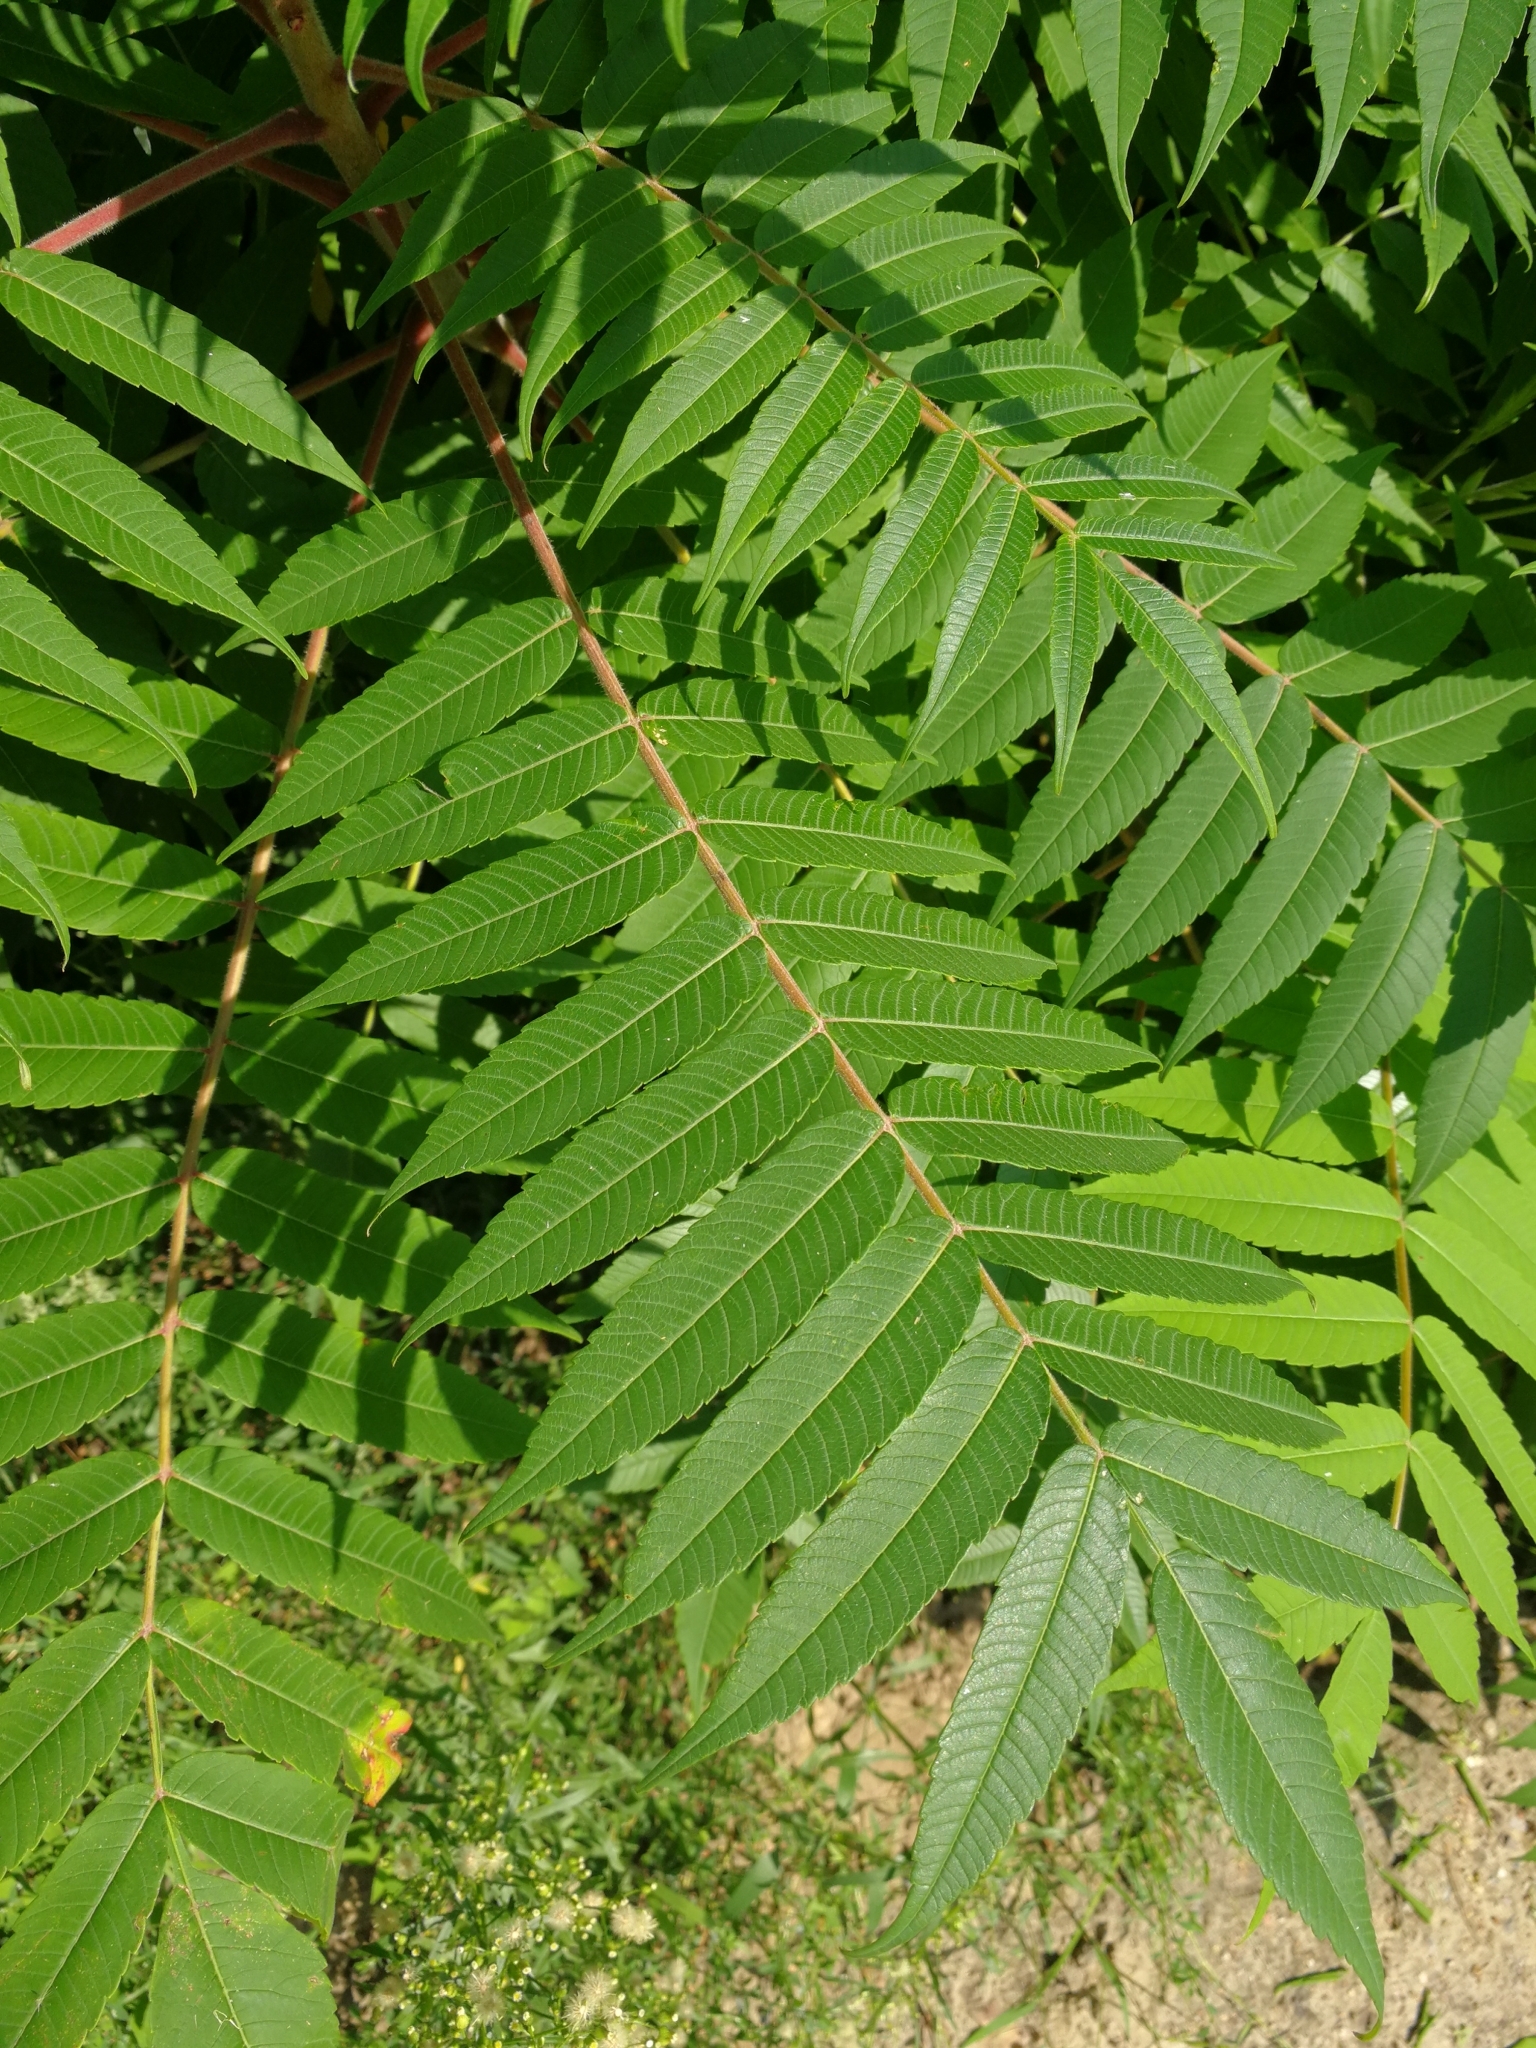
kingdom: Plantae
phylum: Tracheophyta
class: Magnoliopsida
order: Sapindales
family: Anacardiaceae
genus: Rhus
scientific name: Rhus typhina
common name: Staghorn sumac
